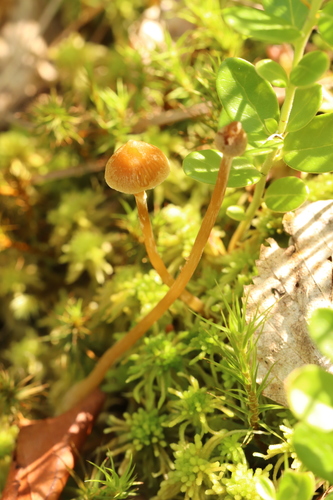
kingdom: Fungi
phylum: Basidiomycota
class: Agaricomycetes
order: Agaricales
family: Hymenogastraceae
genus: Galerina
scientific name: Galerina paludosa
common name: Bog bell
